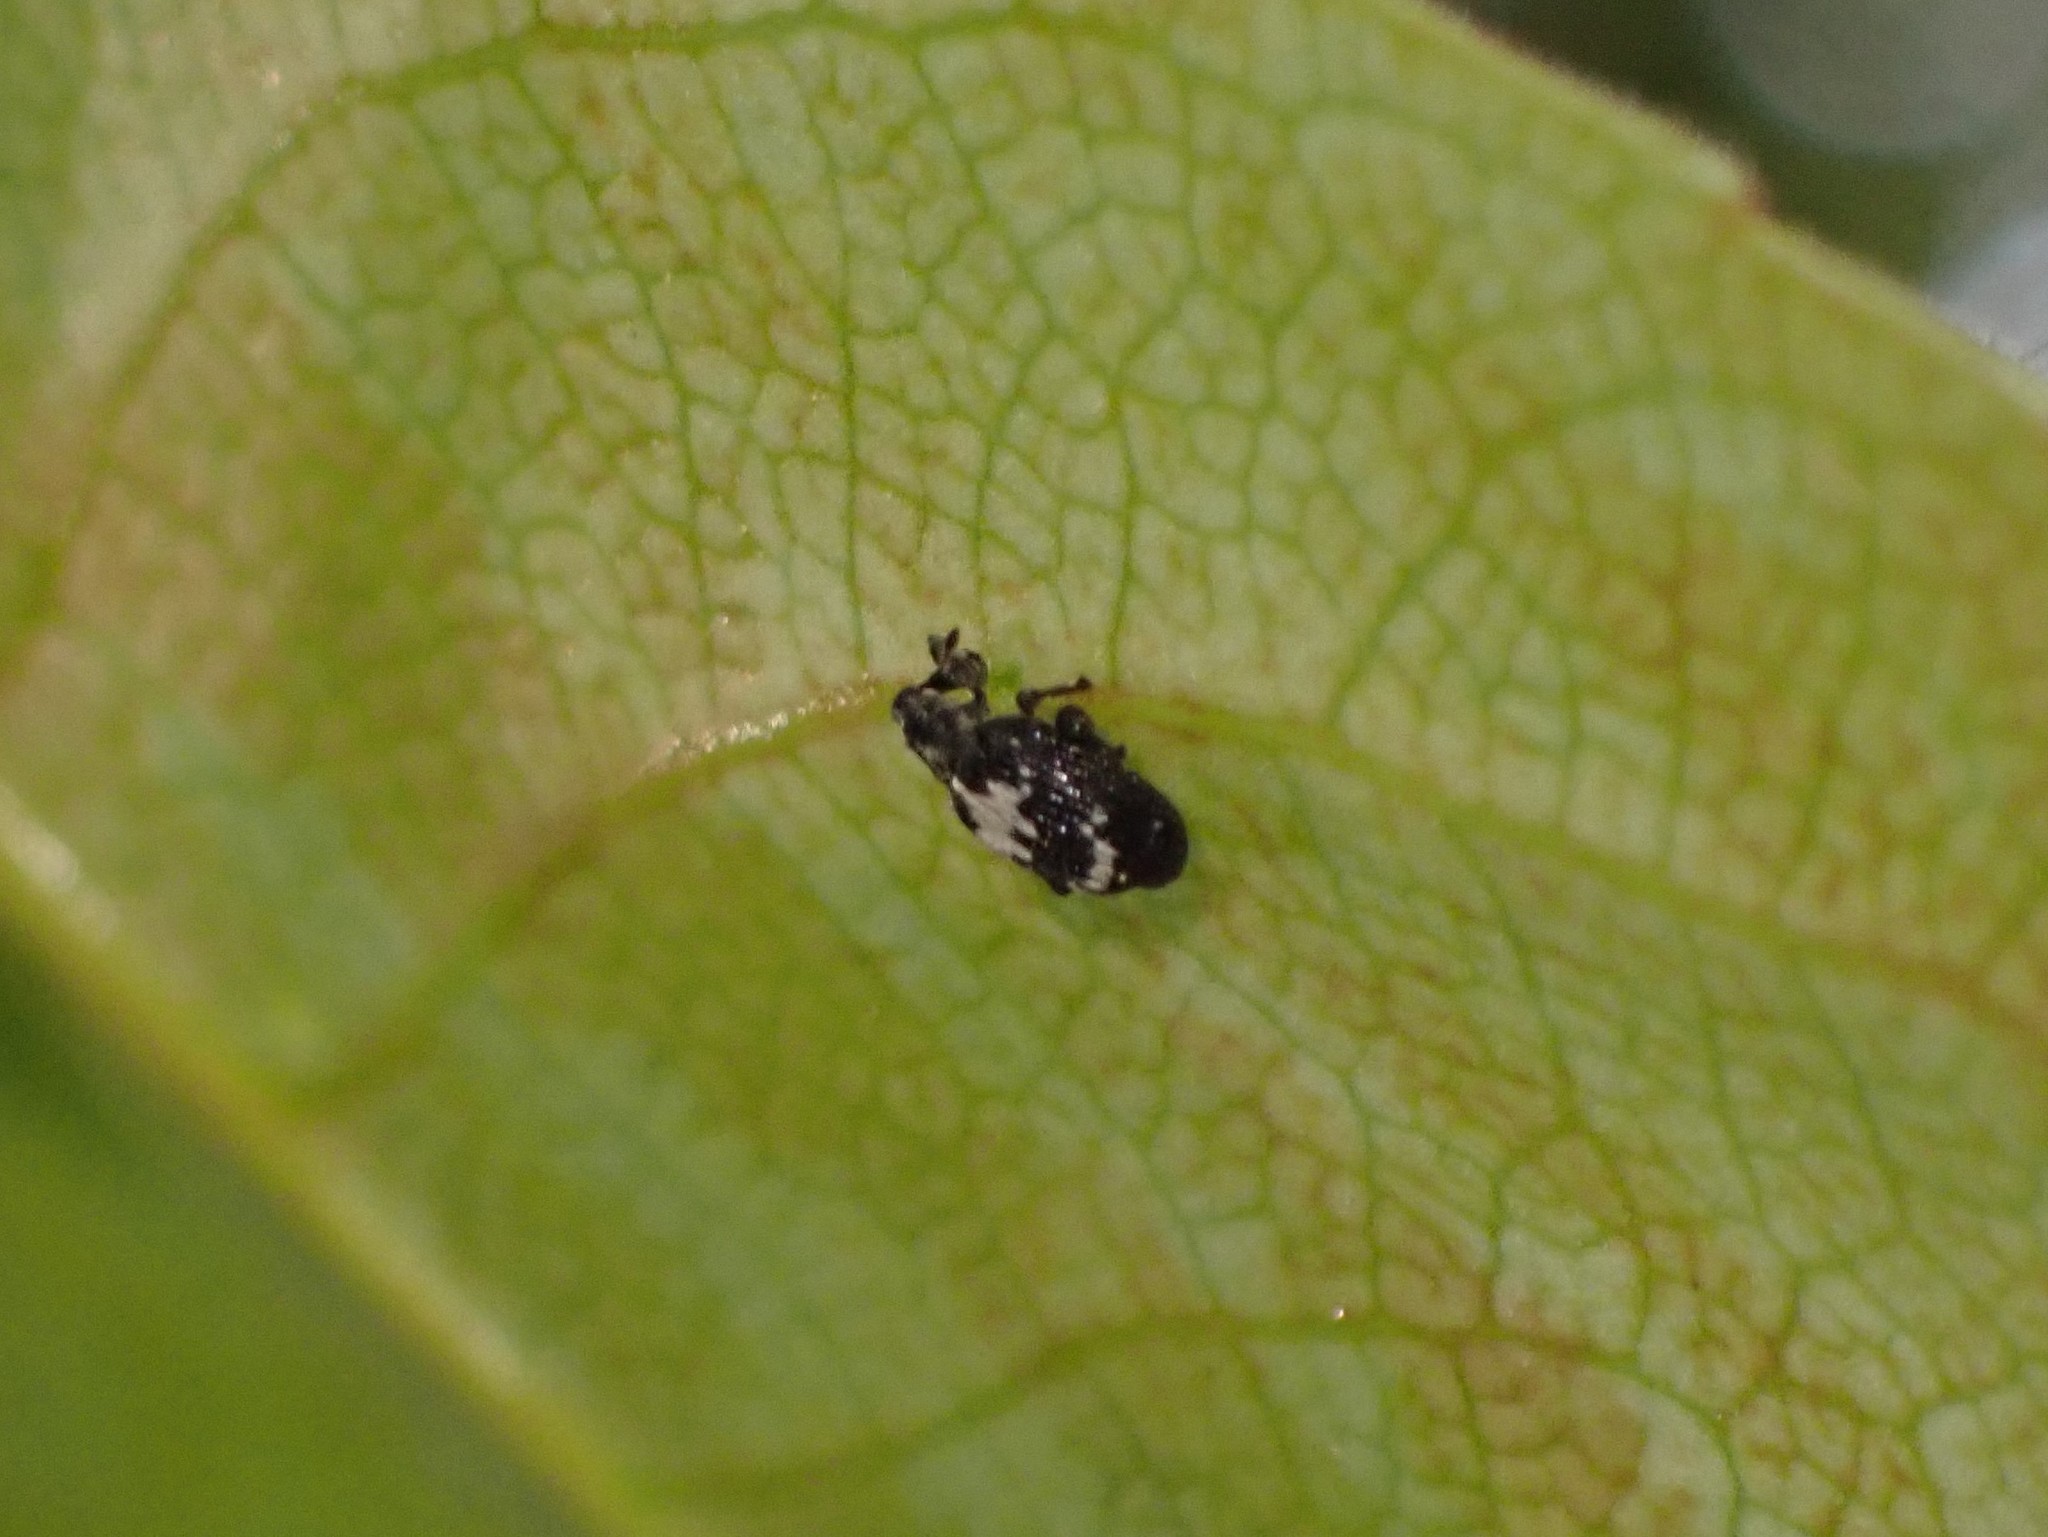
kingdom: Animalia
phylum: Arthropoda
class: Insecta
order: Coleoptera
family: Curculionidae
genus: Tachyerges
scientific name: Tachyerges salicis
